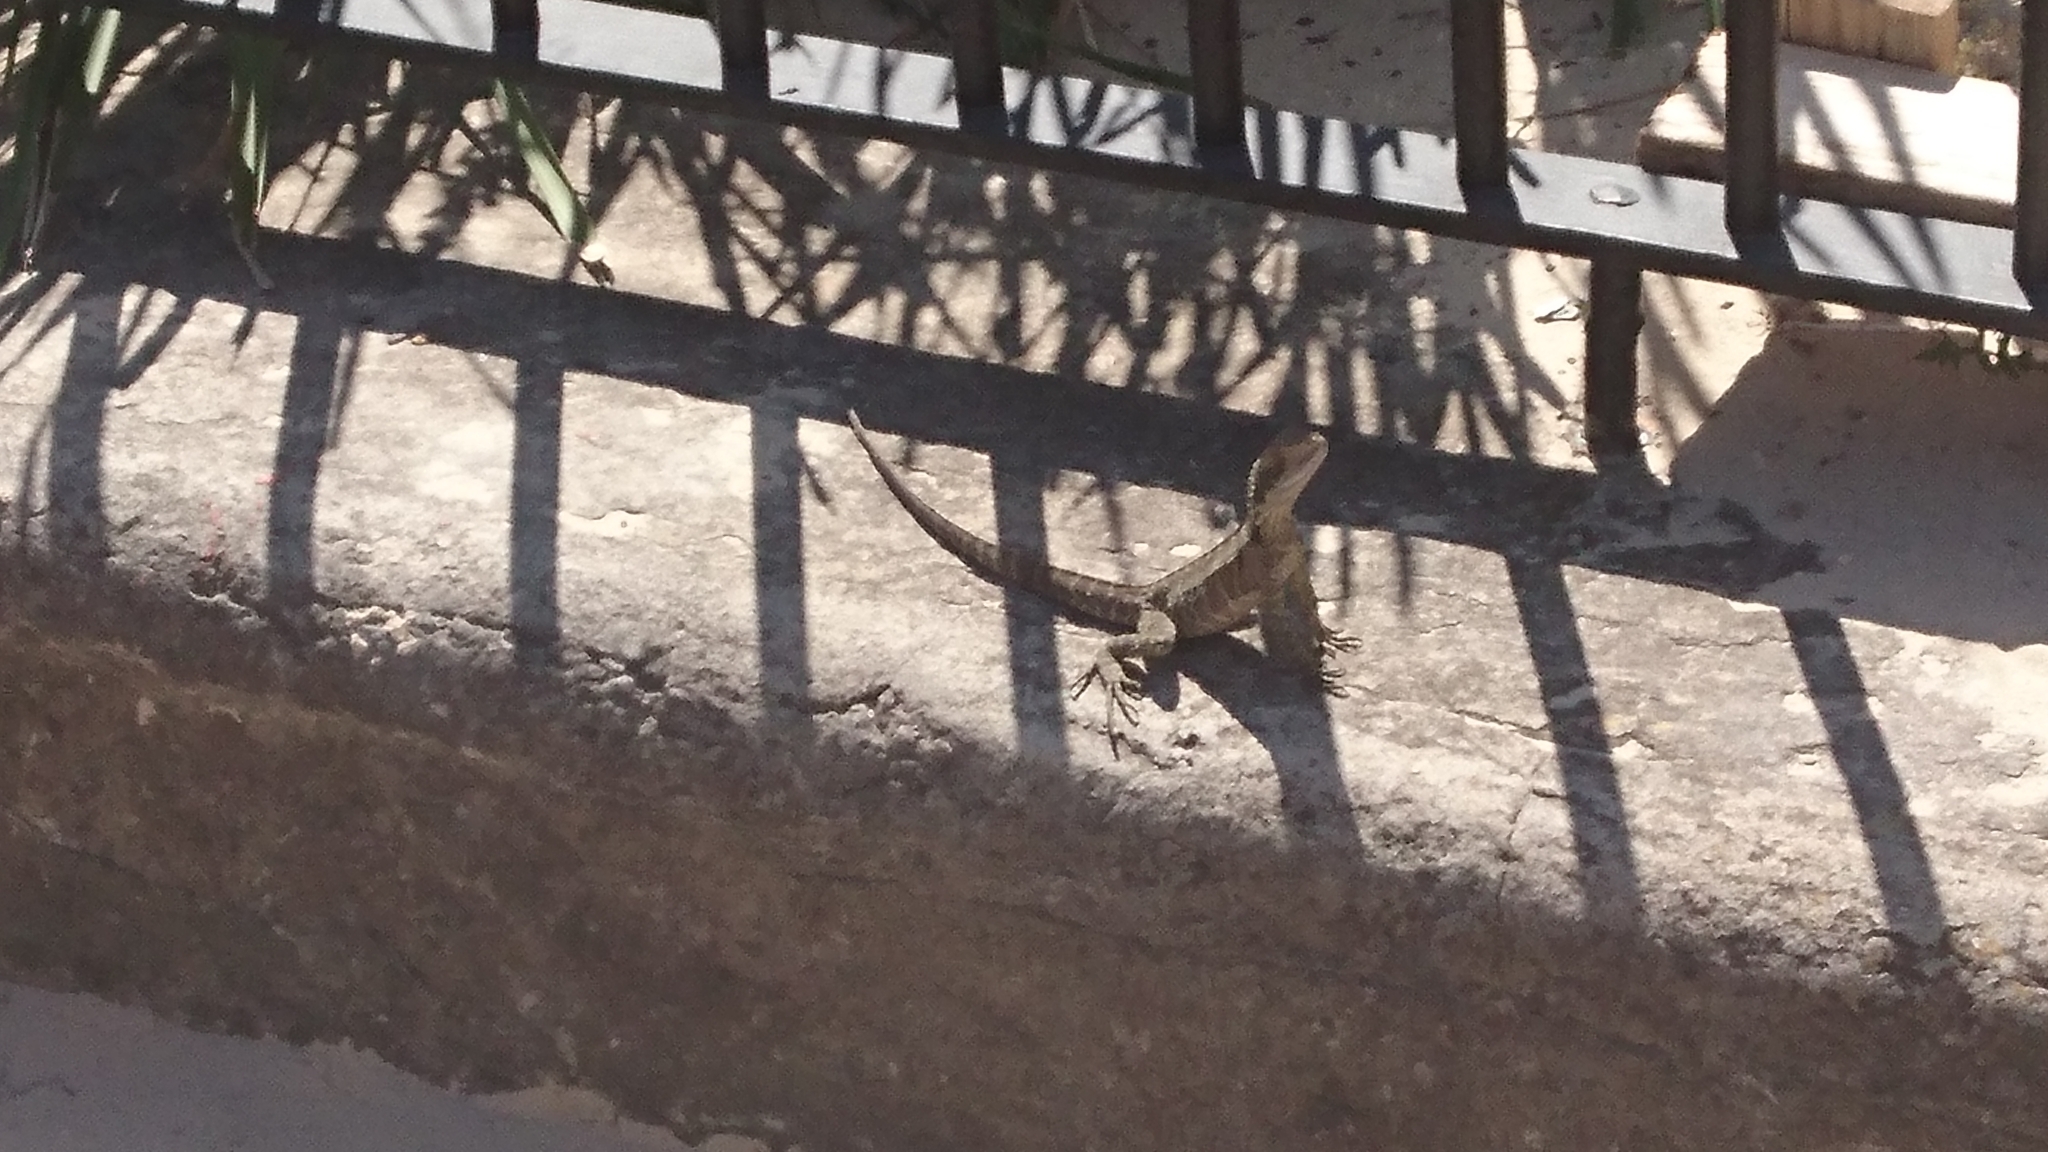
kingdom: Animalia
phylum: Chordata
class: Squamata
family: Agamidae
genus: Intellagama
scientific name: Intellagama lesueurii
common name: Eastern water dragon
